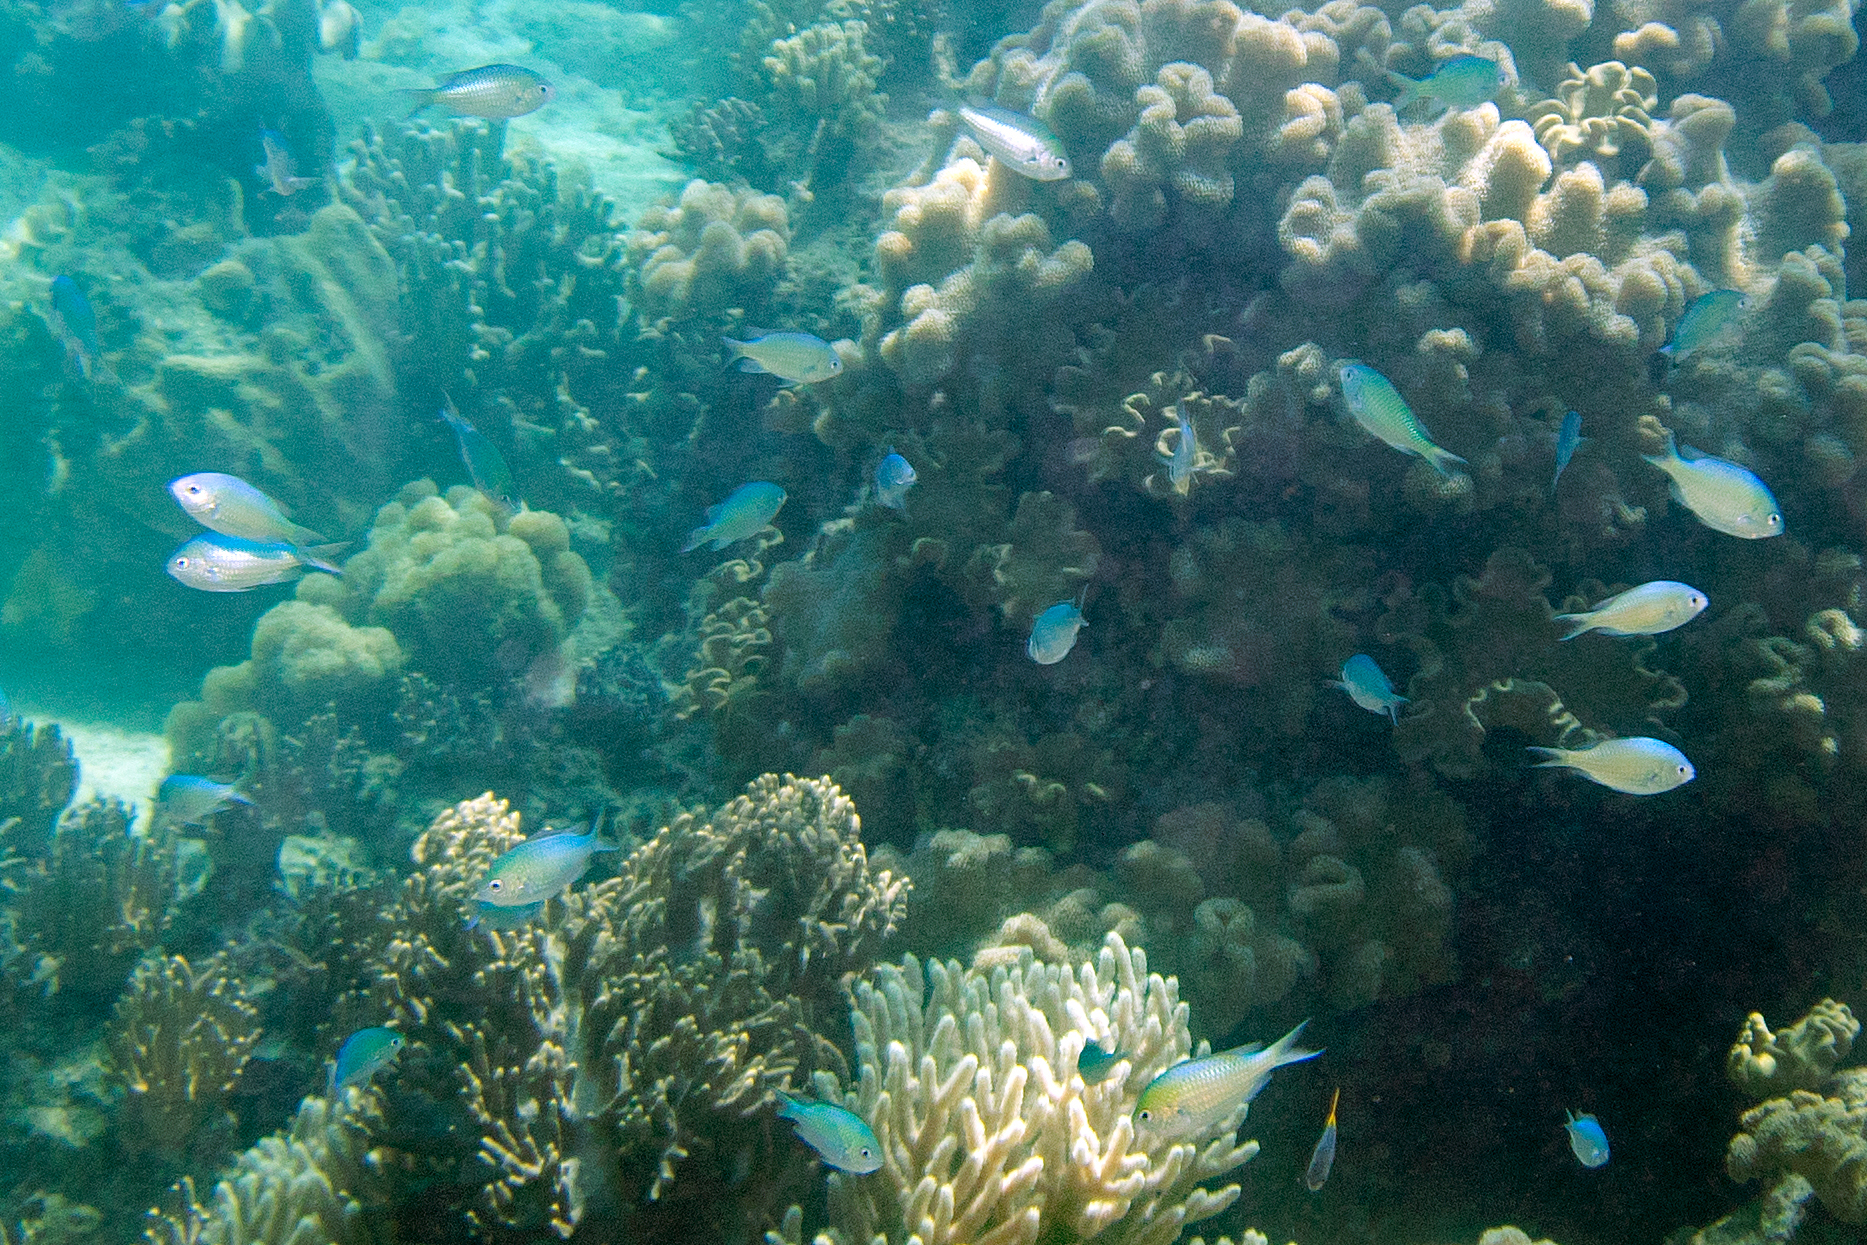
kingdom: Animalia
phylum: Chordata
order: Perciformes
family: Pomacentridae
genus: Chromis
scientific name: Chromis viridis
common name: Blue-green chromis
